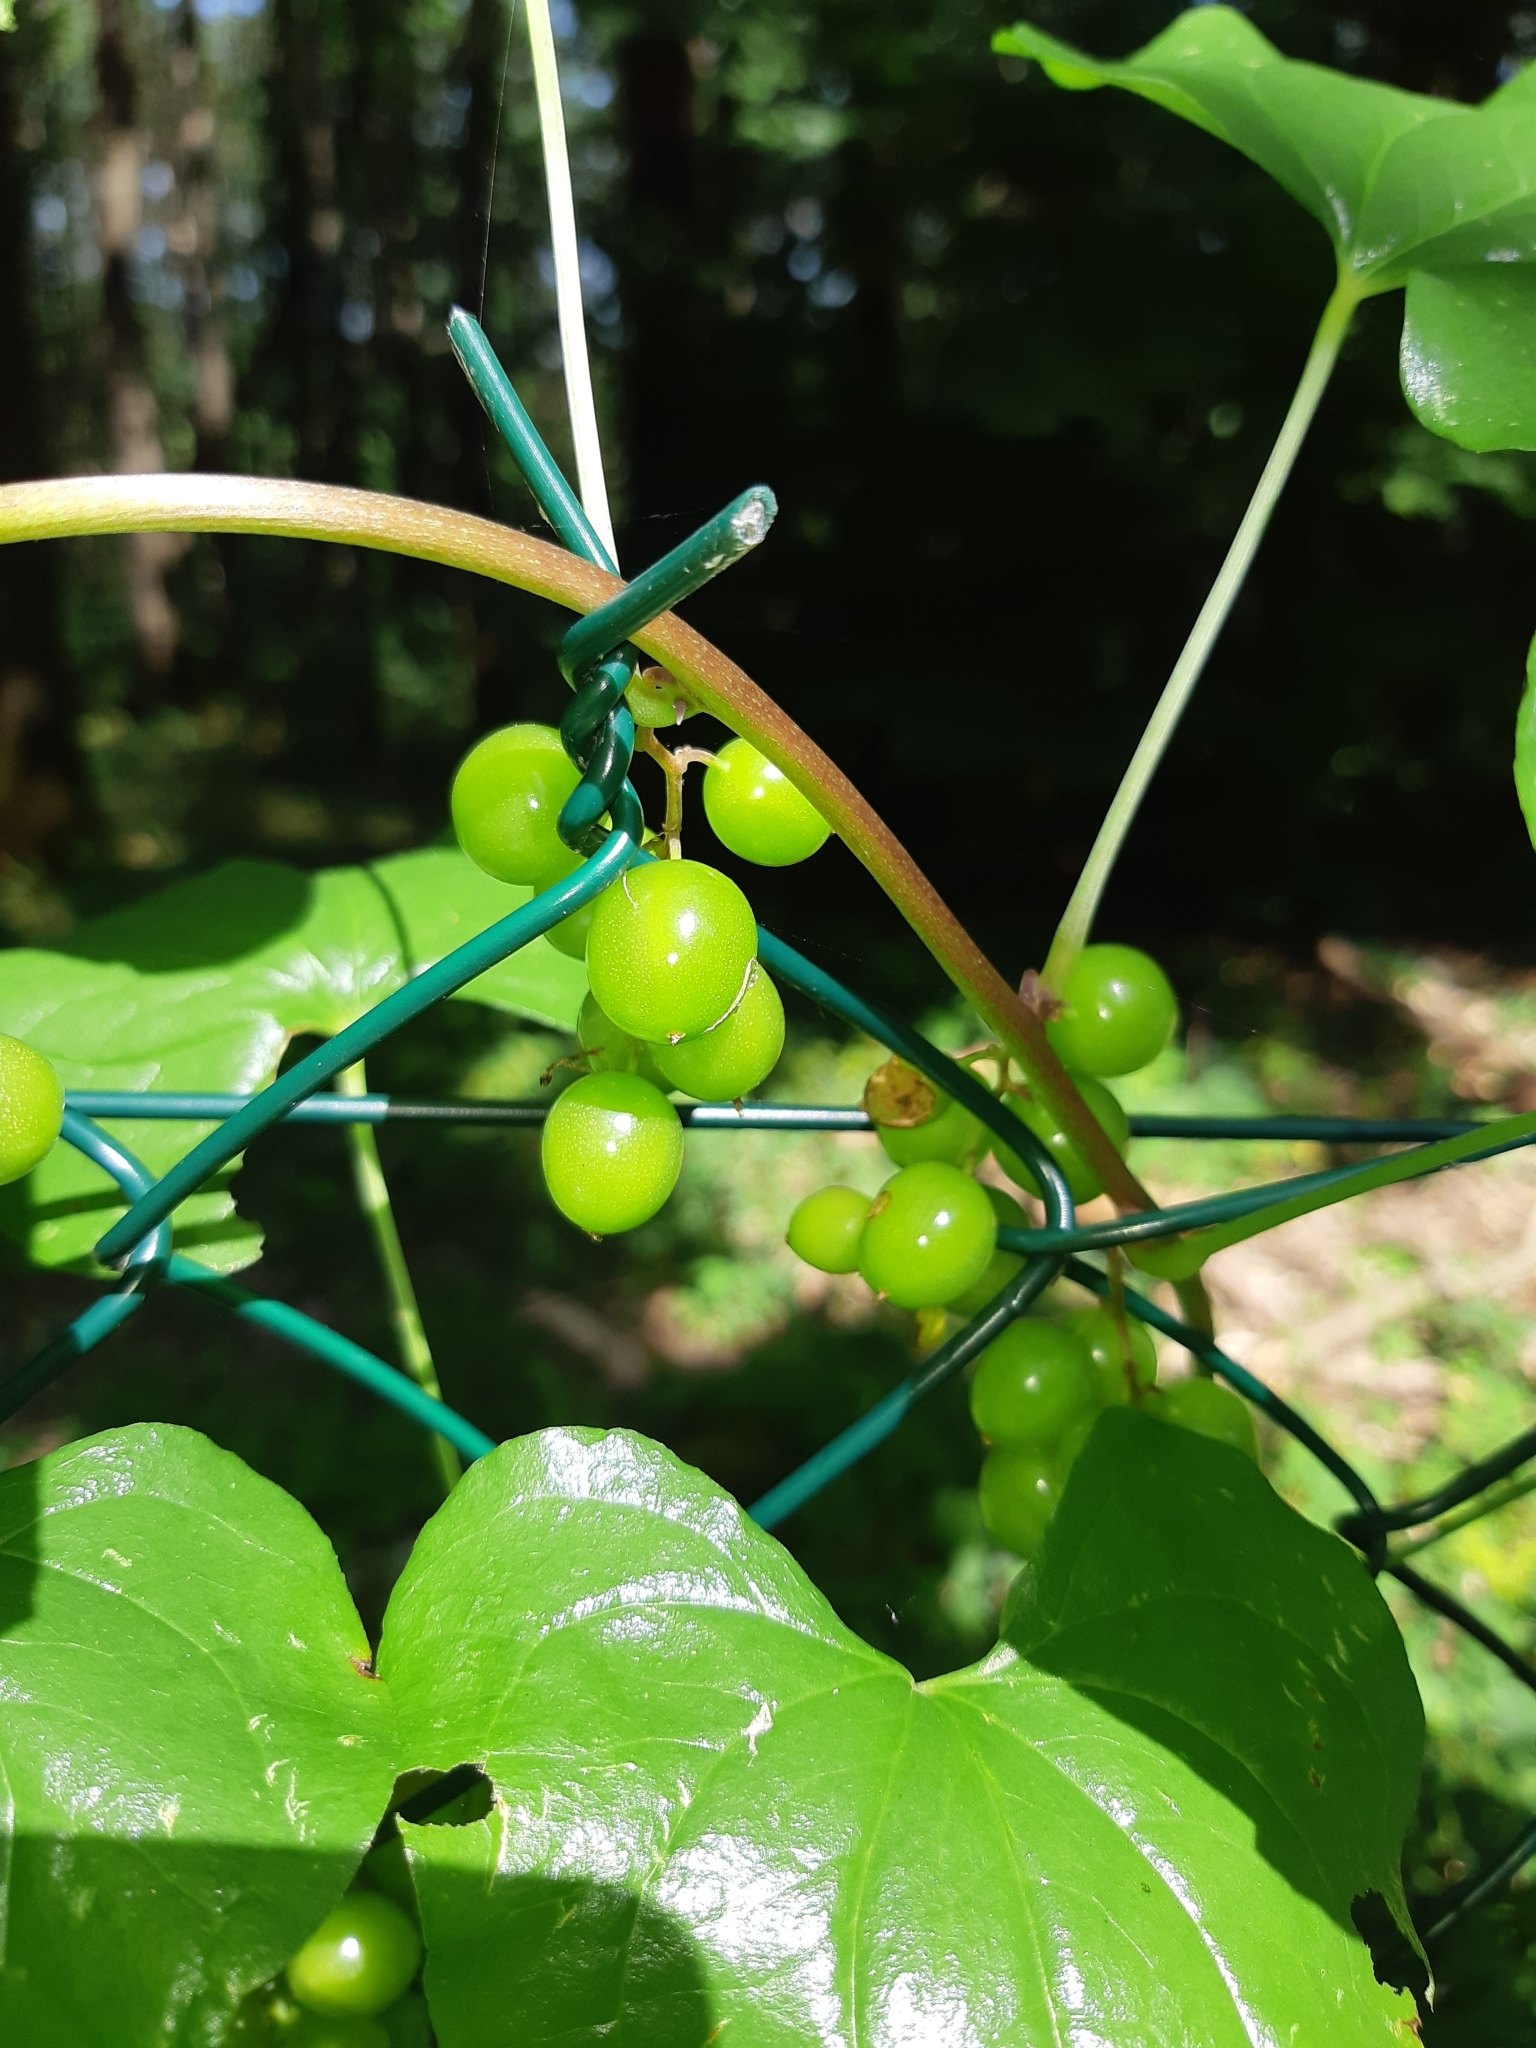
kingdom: Plantae
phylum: Tracheophyta
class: Liliopsida
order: Dioscoreales
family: Dioscoreaceae
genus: Dioscorea
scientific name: Dioscorea communis
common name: Black-bindweed
